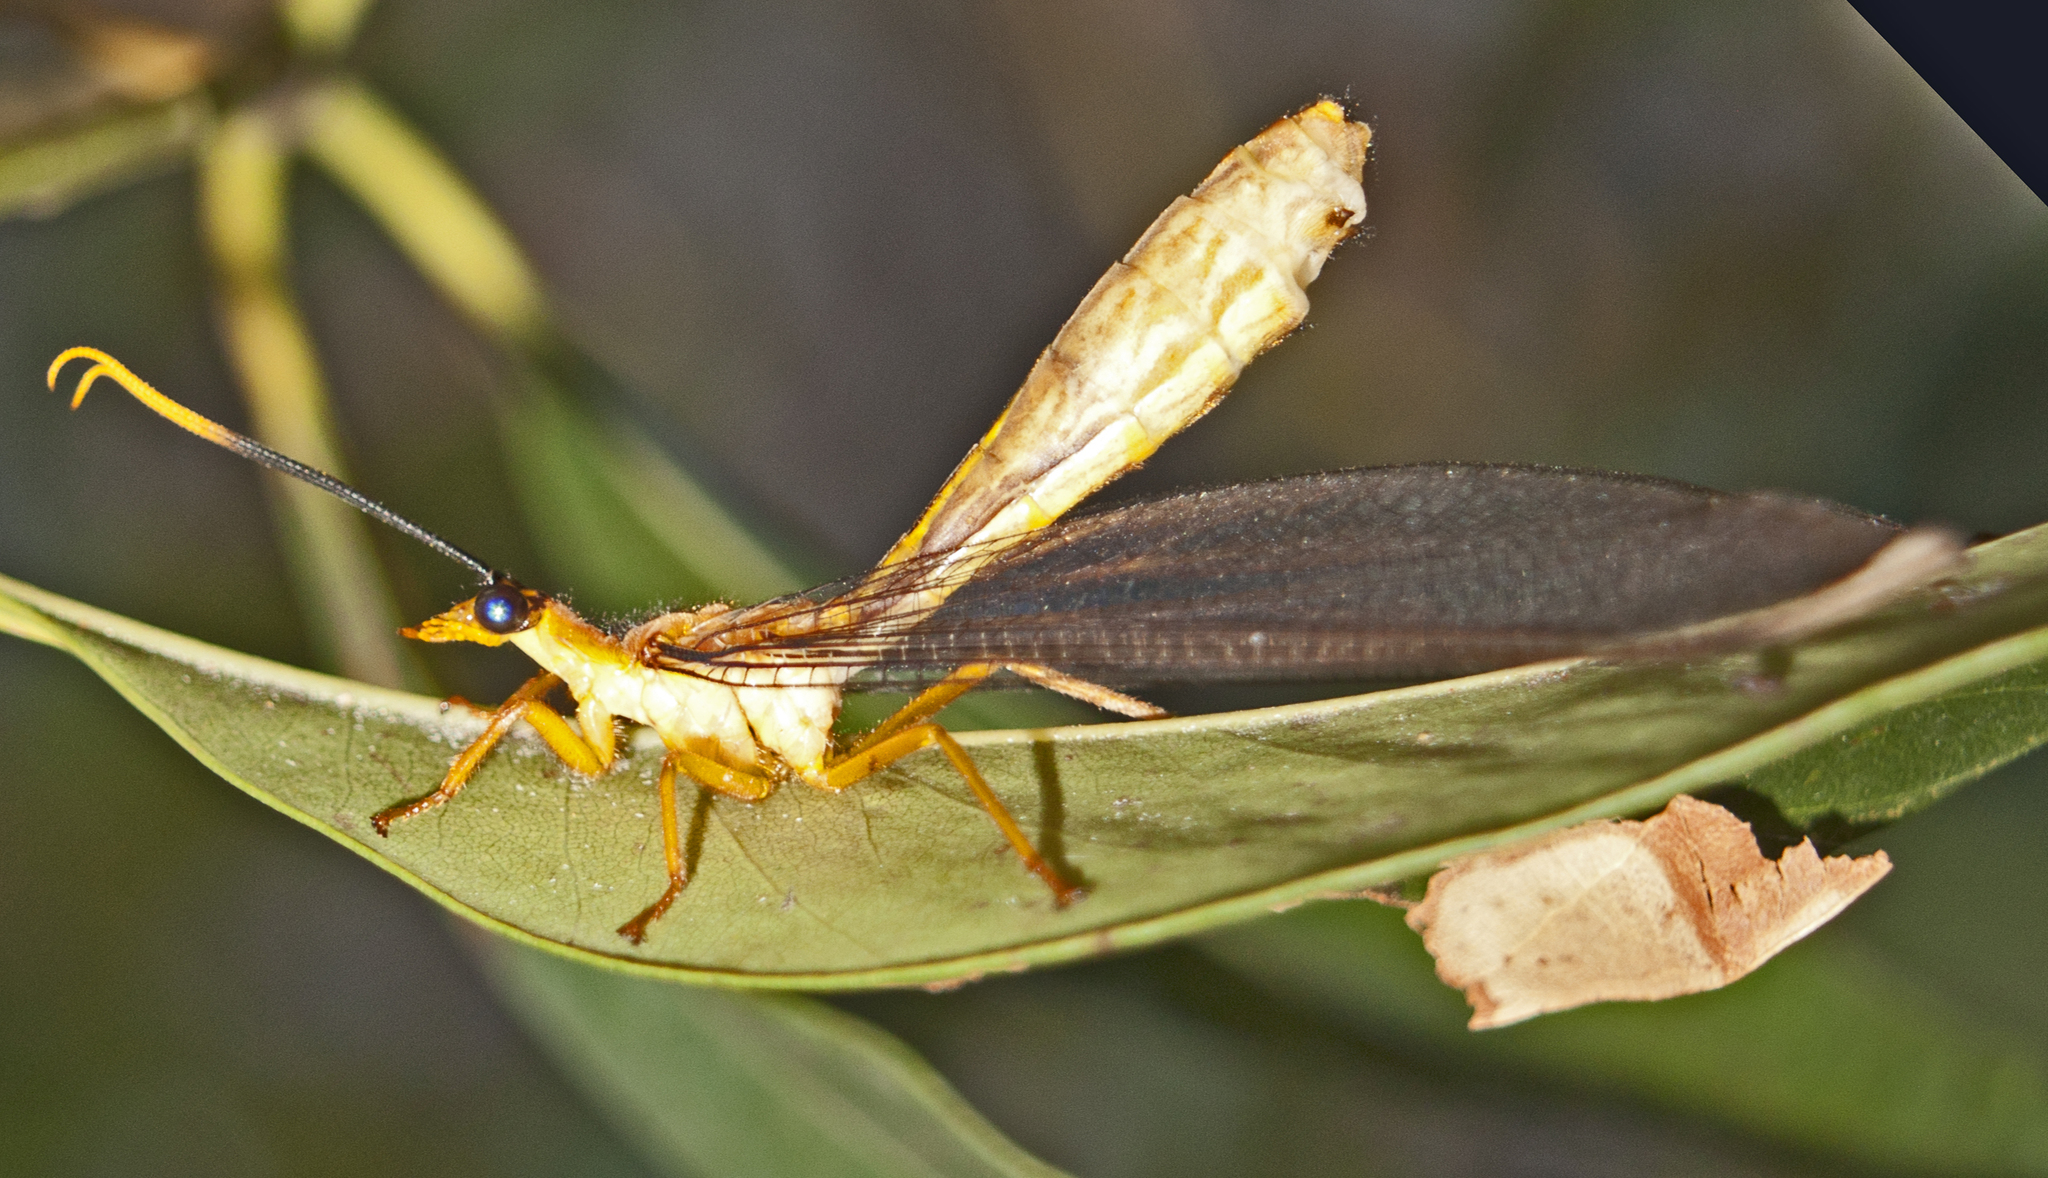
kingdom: Animalia
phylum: Arthropoda
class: Insecta
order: Neuroptera
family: Nymphidae
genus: Nymphes
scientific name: Nymphes myrmeleonoides
